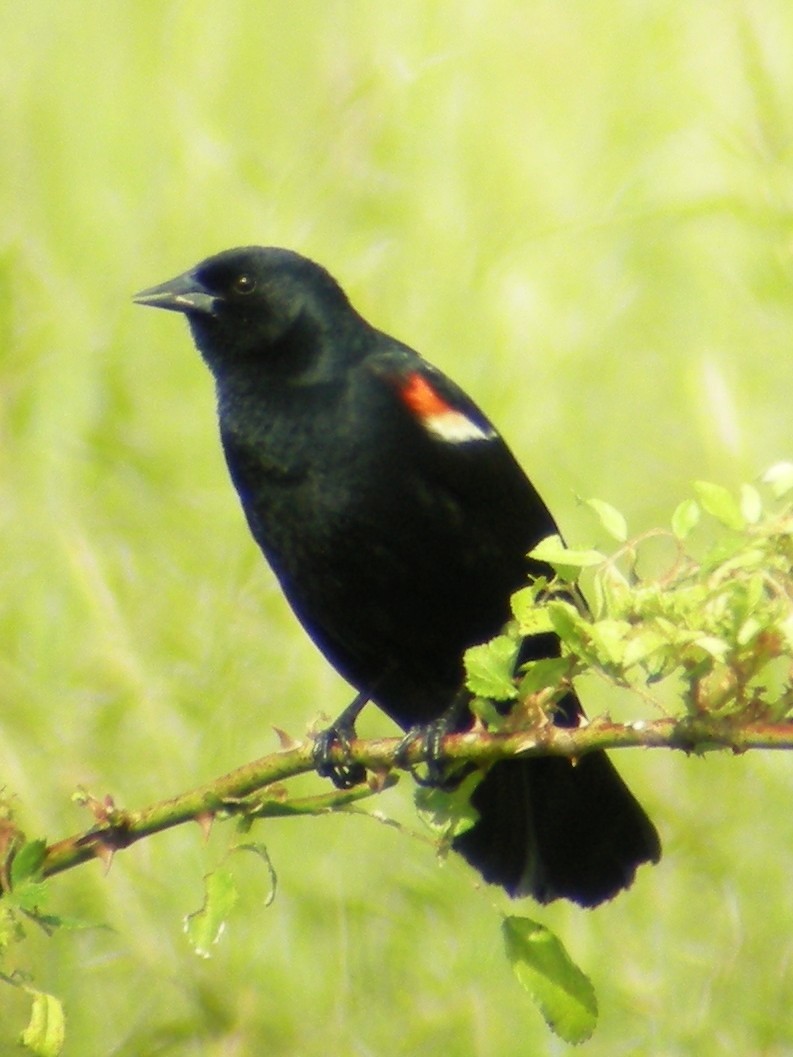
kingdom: Animalia
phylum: Chordata
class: Aves
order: Passeriformes
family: Icteridae
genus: Agelaius
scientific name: Agelaius phoeniceus
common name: Red-winged blackbird
